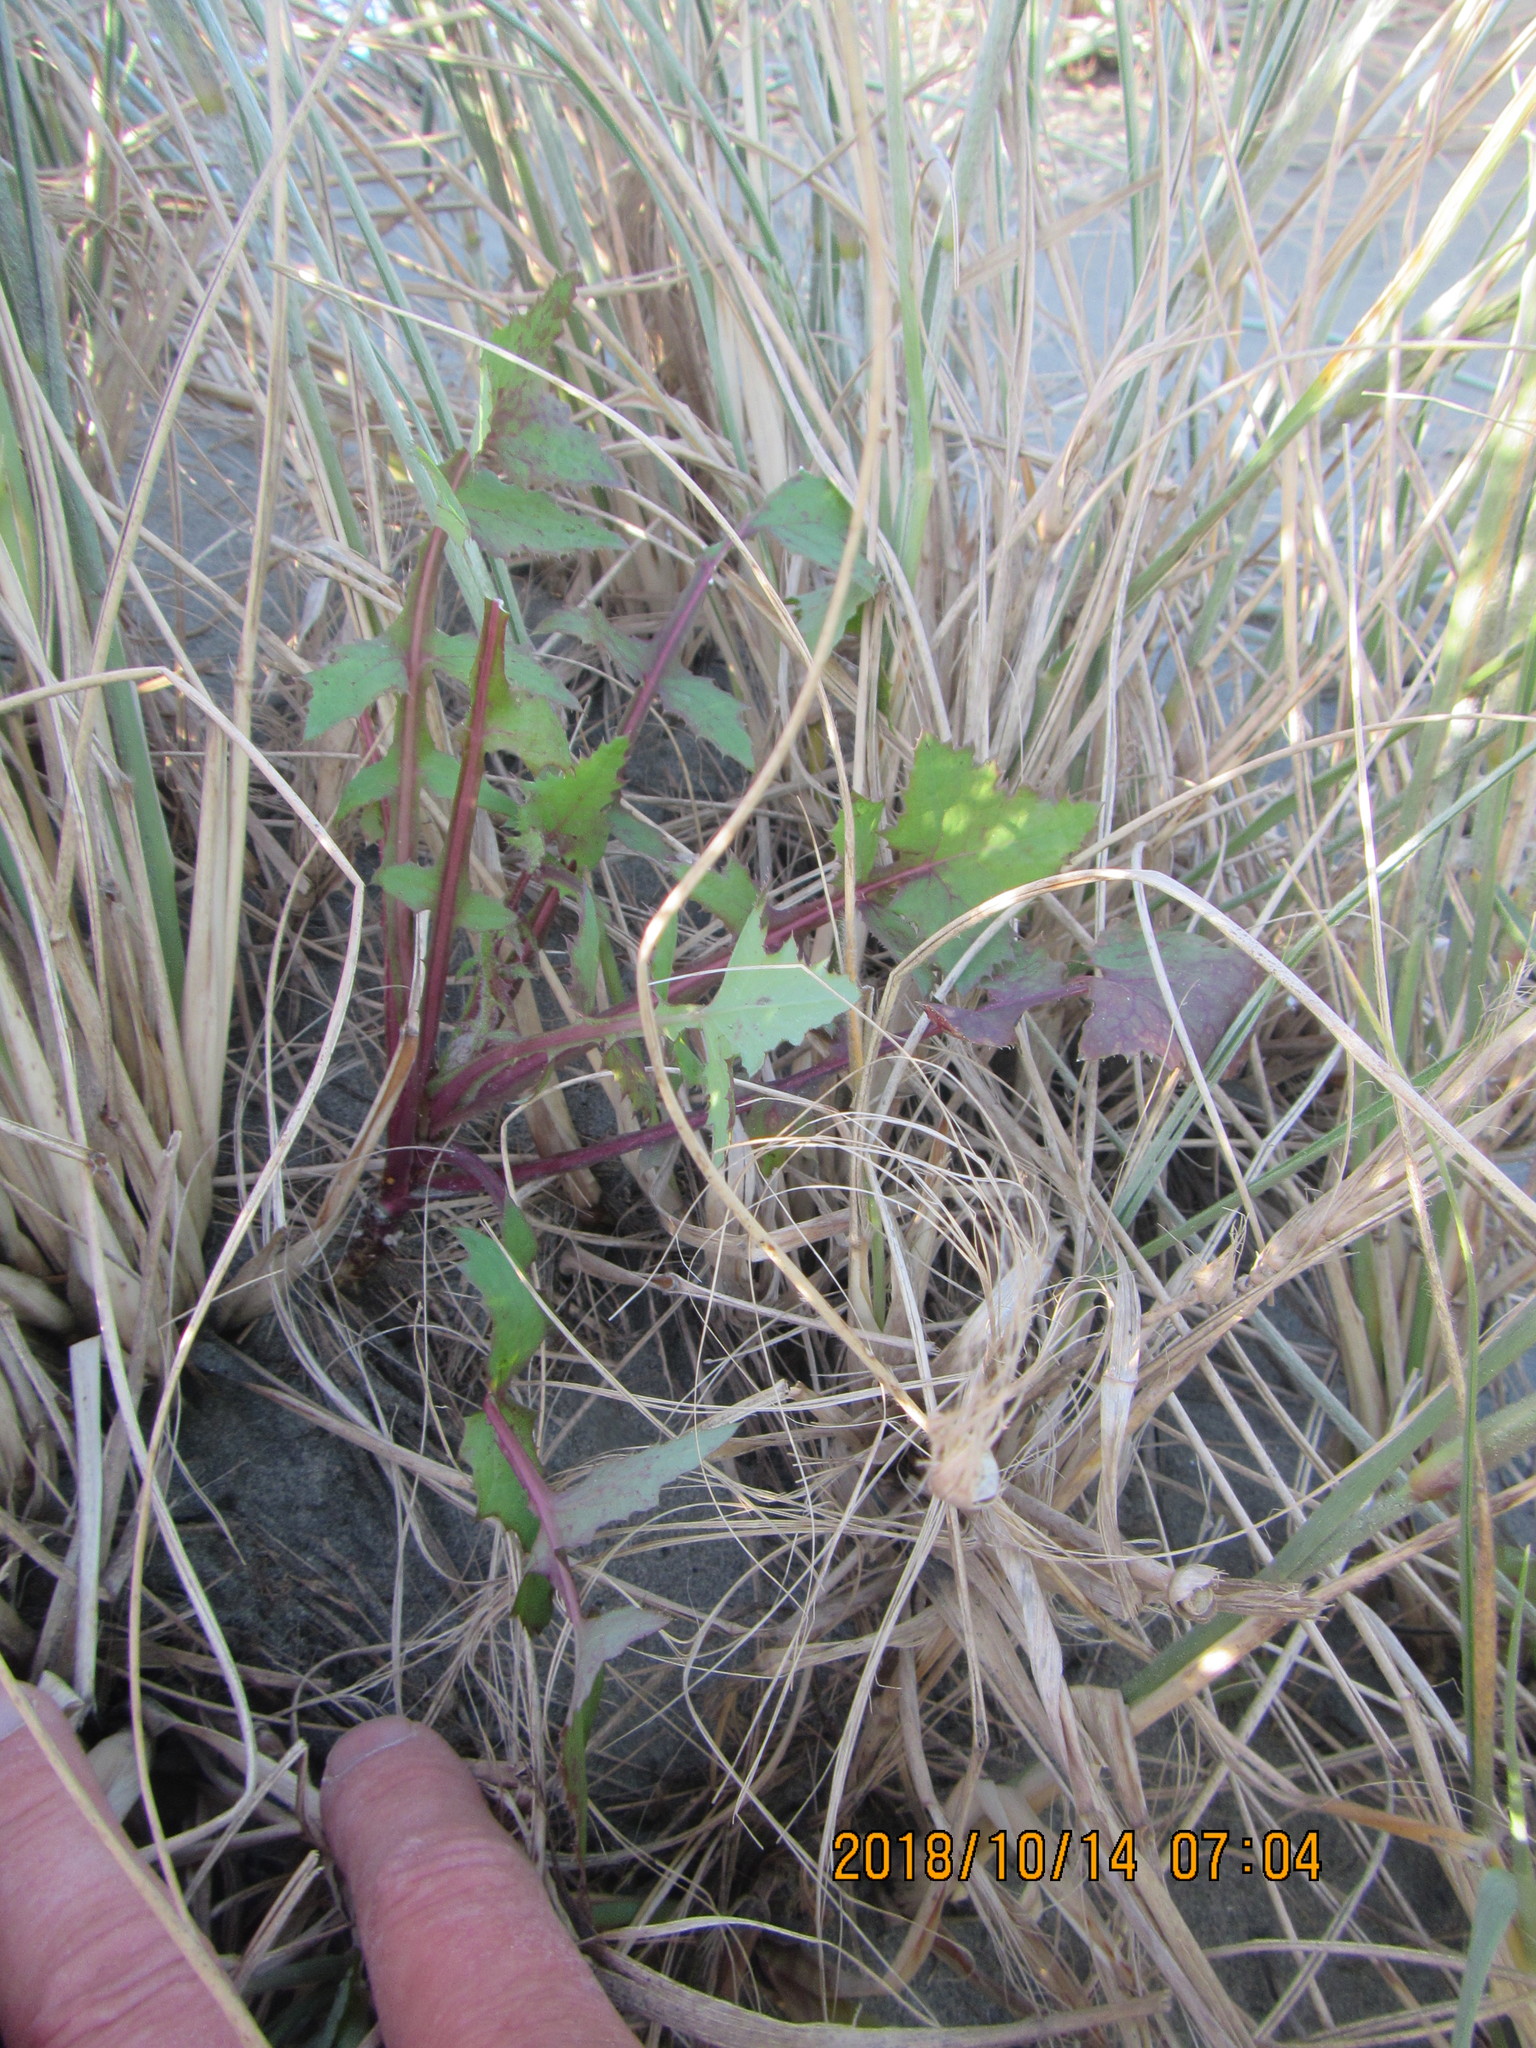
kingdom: Plantae
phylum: Tracheophyta
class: Magnoliopsida
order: Asterales
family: Asteraceae
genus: Sonchus
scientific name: Sonchus oleraceus
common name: Common sowthistle
